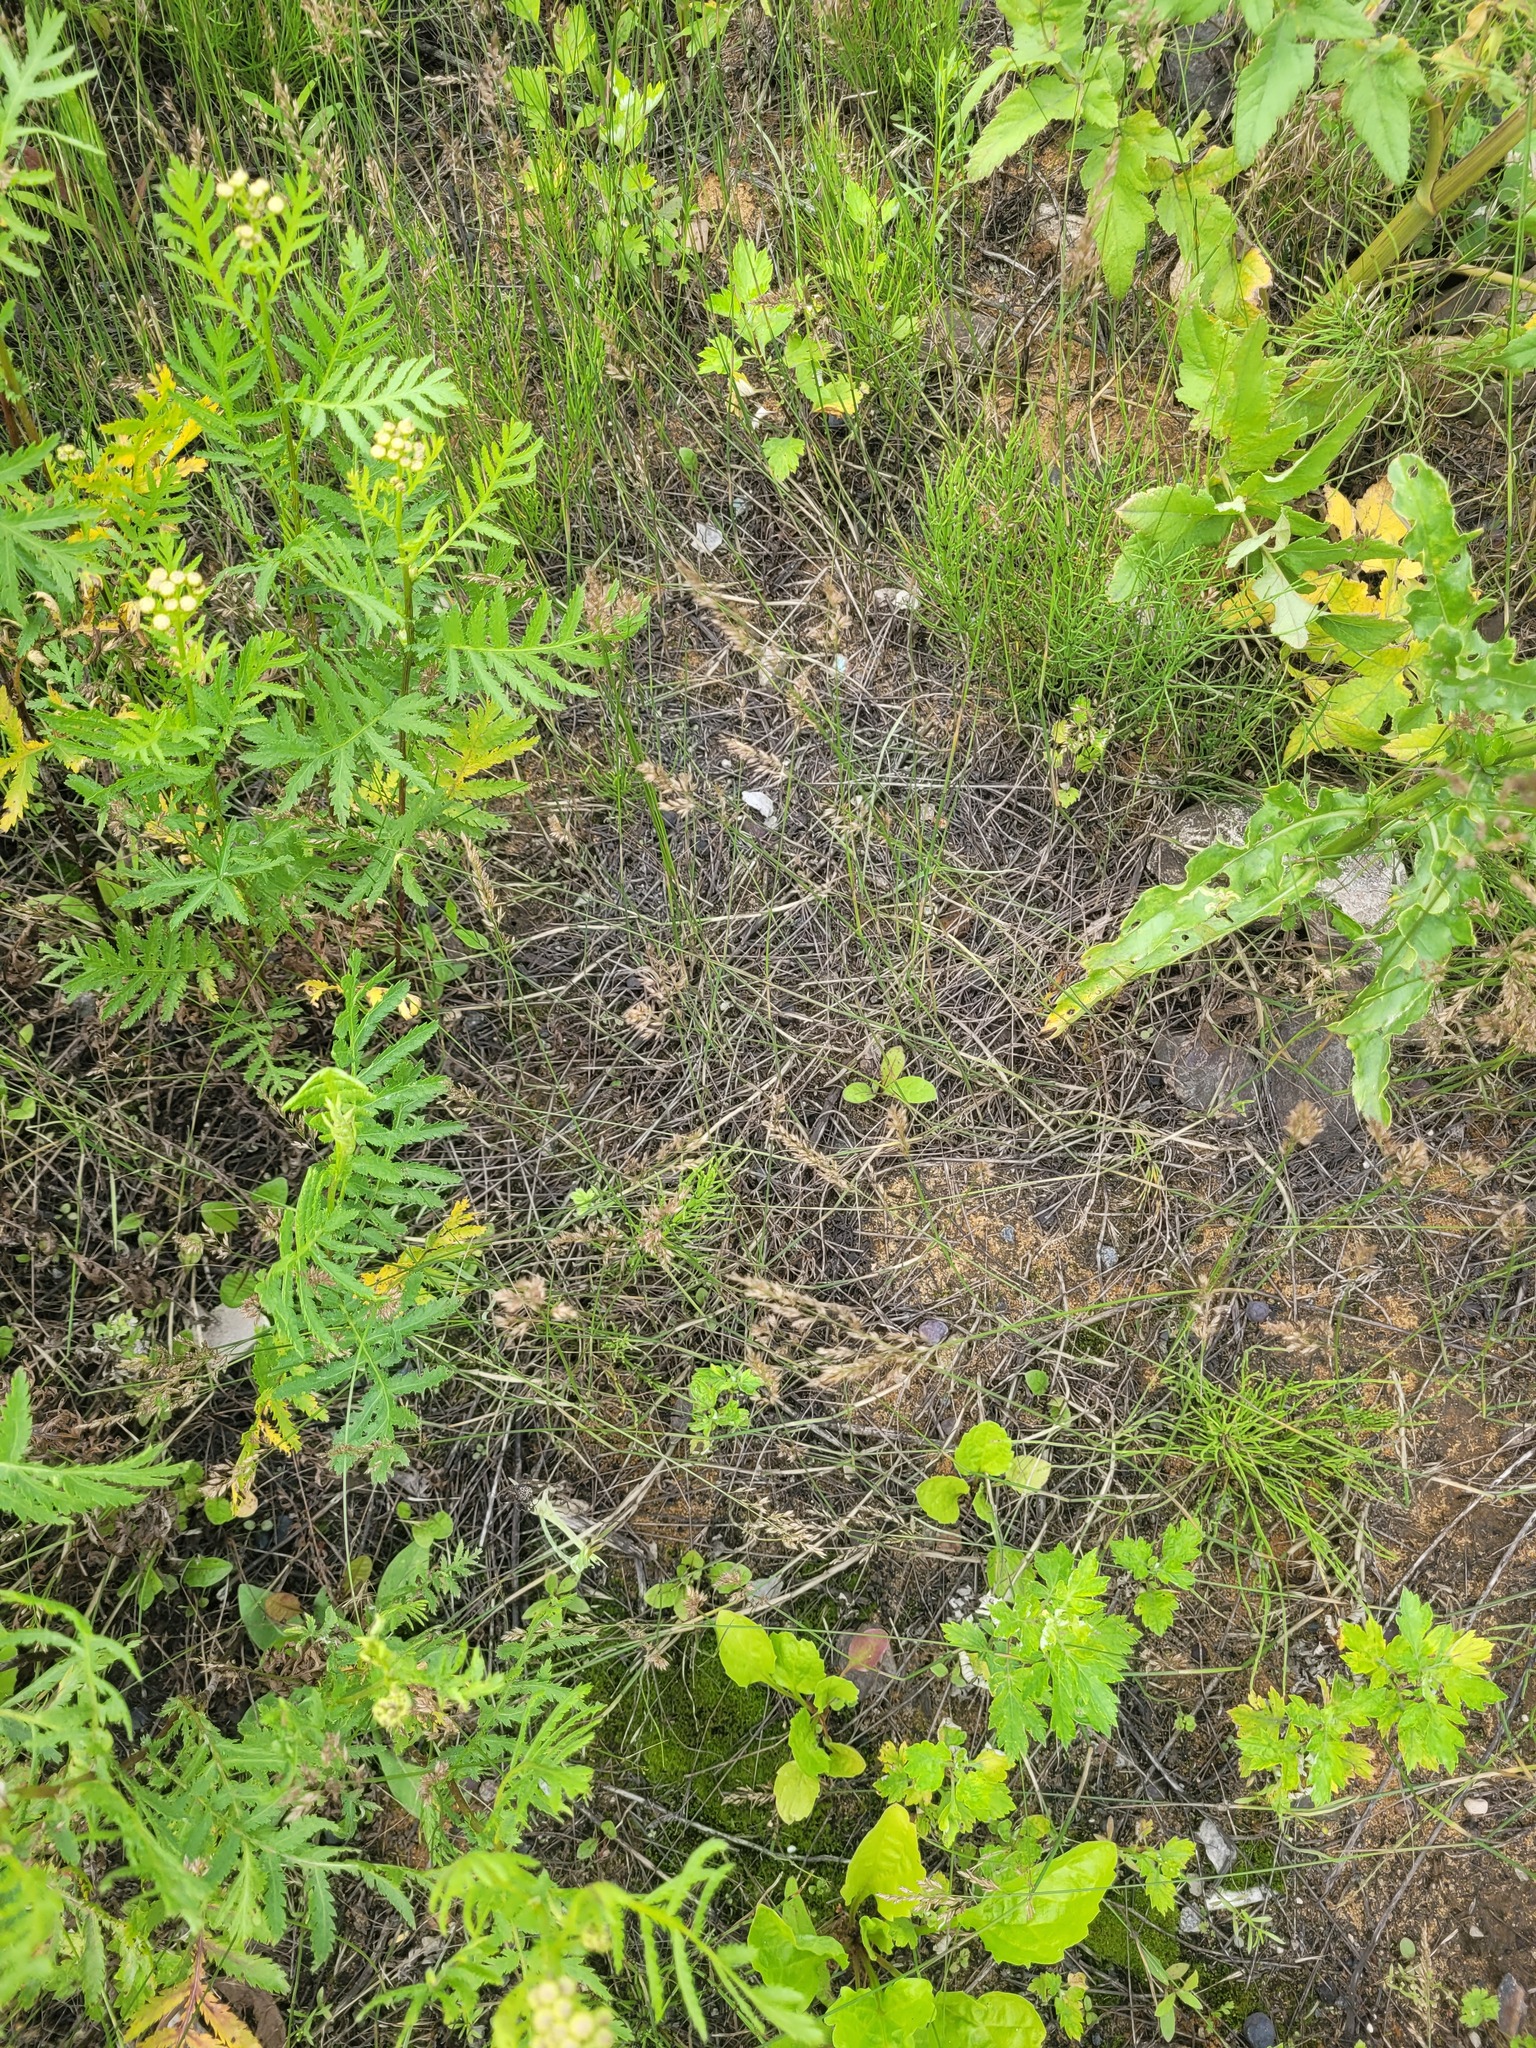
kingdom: Plantae
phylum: Tracheophyta
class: Liliopsida
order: Poales
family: Poaceae
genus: Poa
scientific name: Poa compressa
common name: Canada bluegrass
